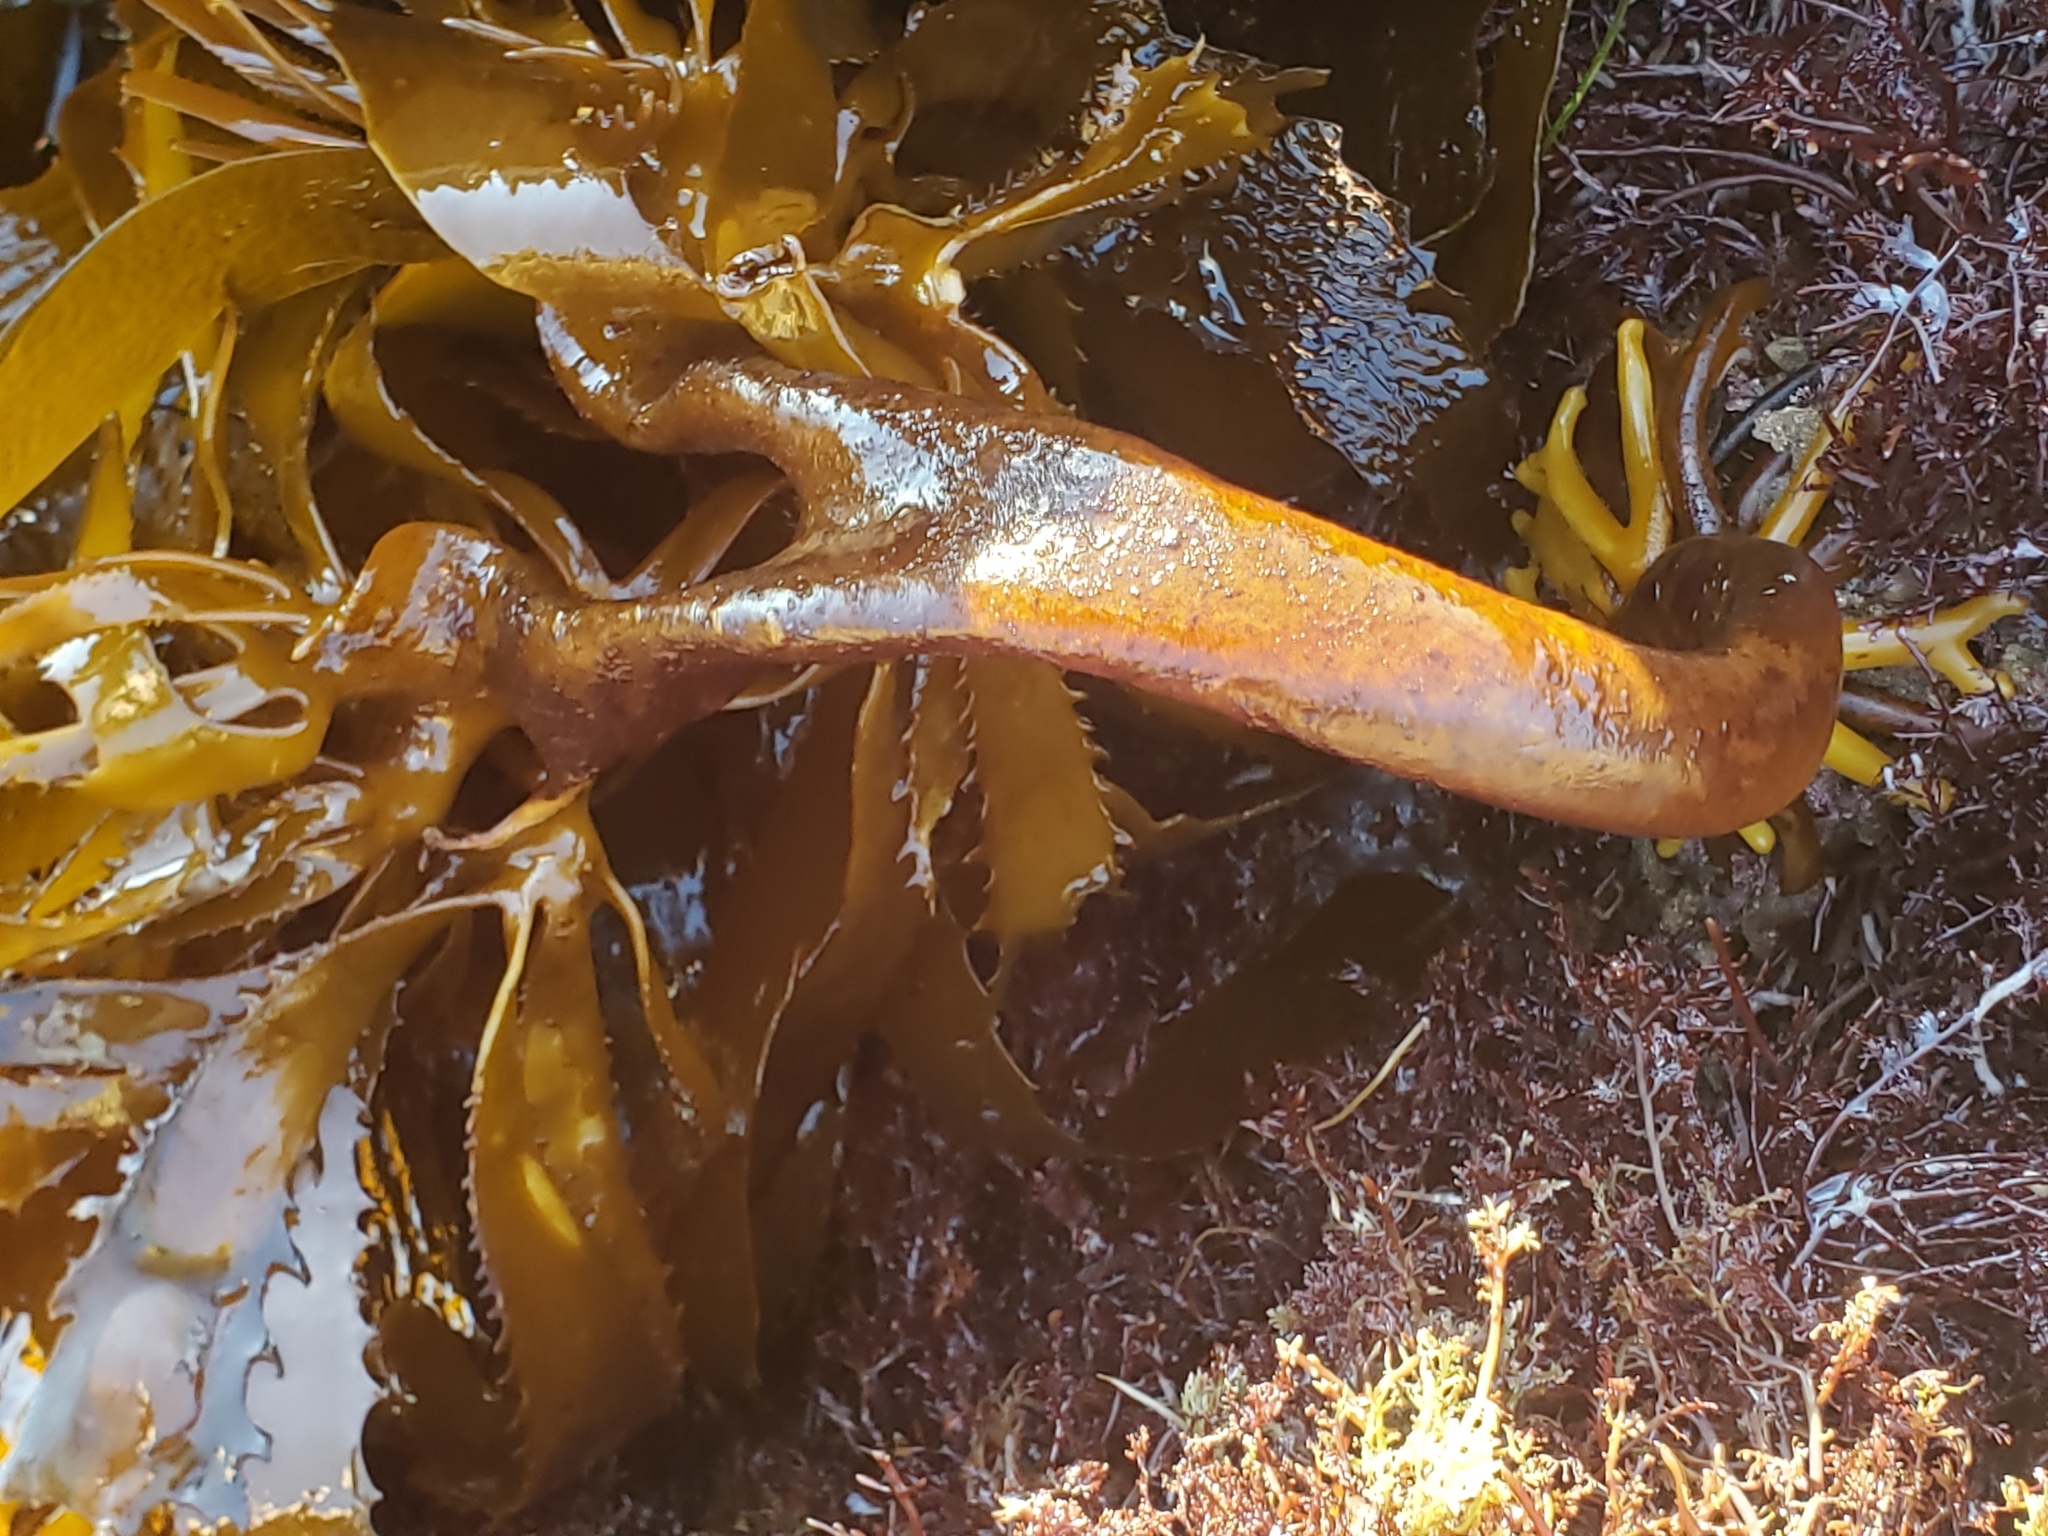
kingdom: Chromista
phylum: Ochrophyta
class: Phaeophyceae
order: Laminariales
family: Lessoniaceae
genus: Eisenia
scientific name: Eisenia arborea
